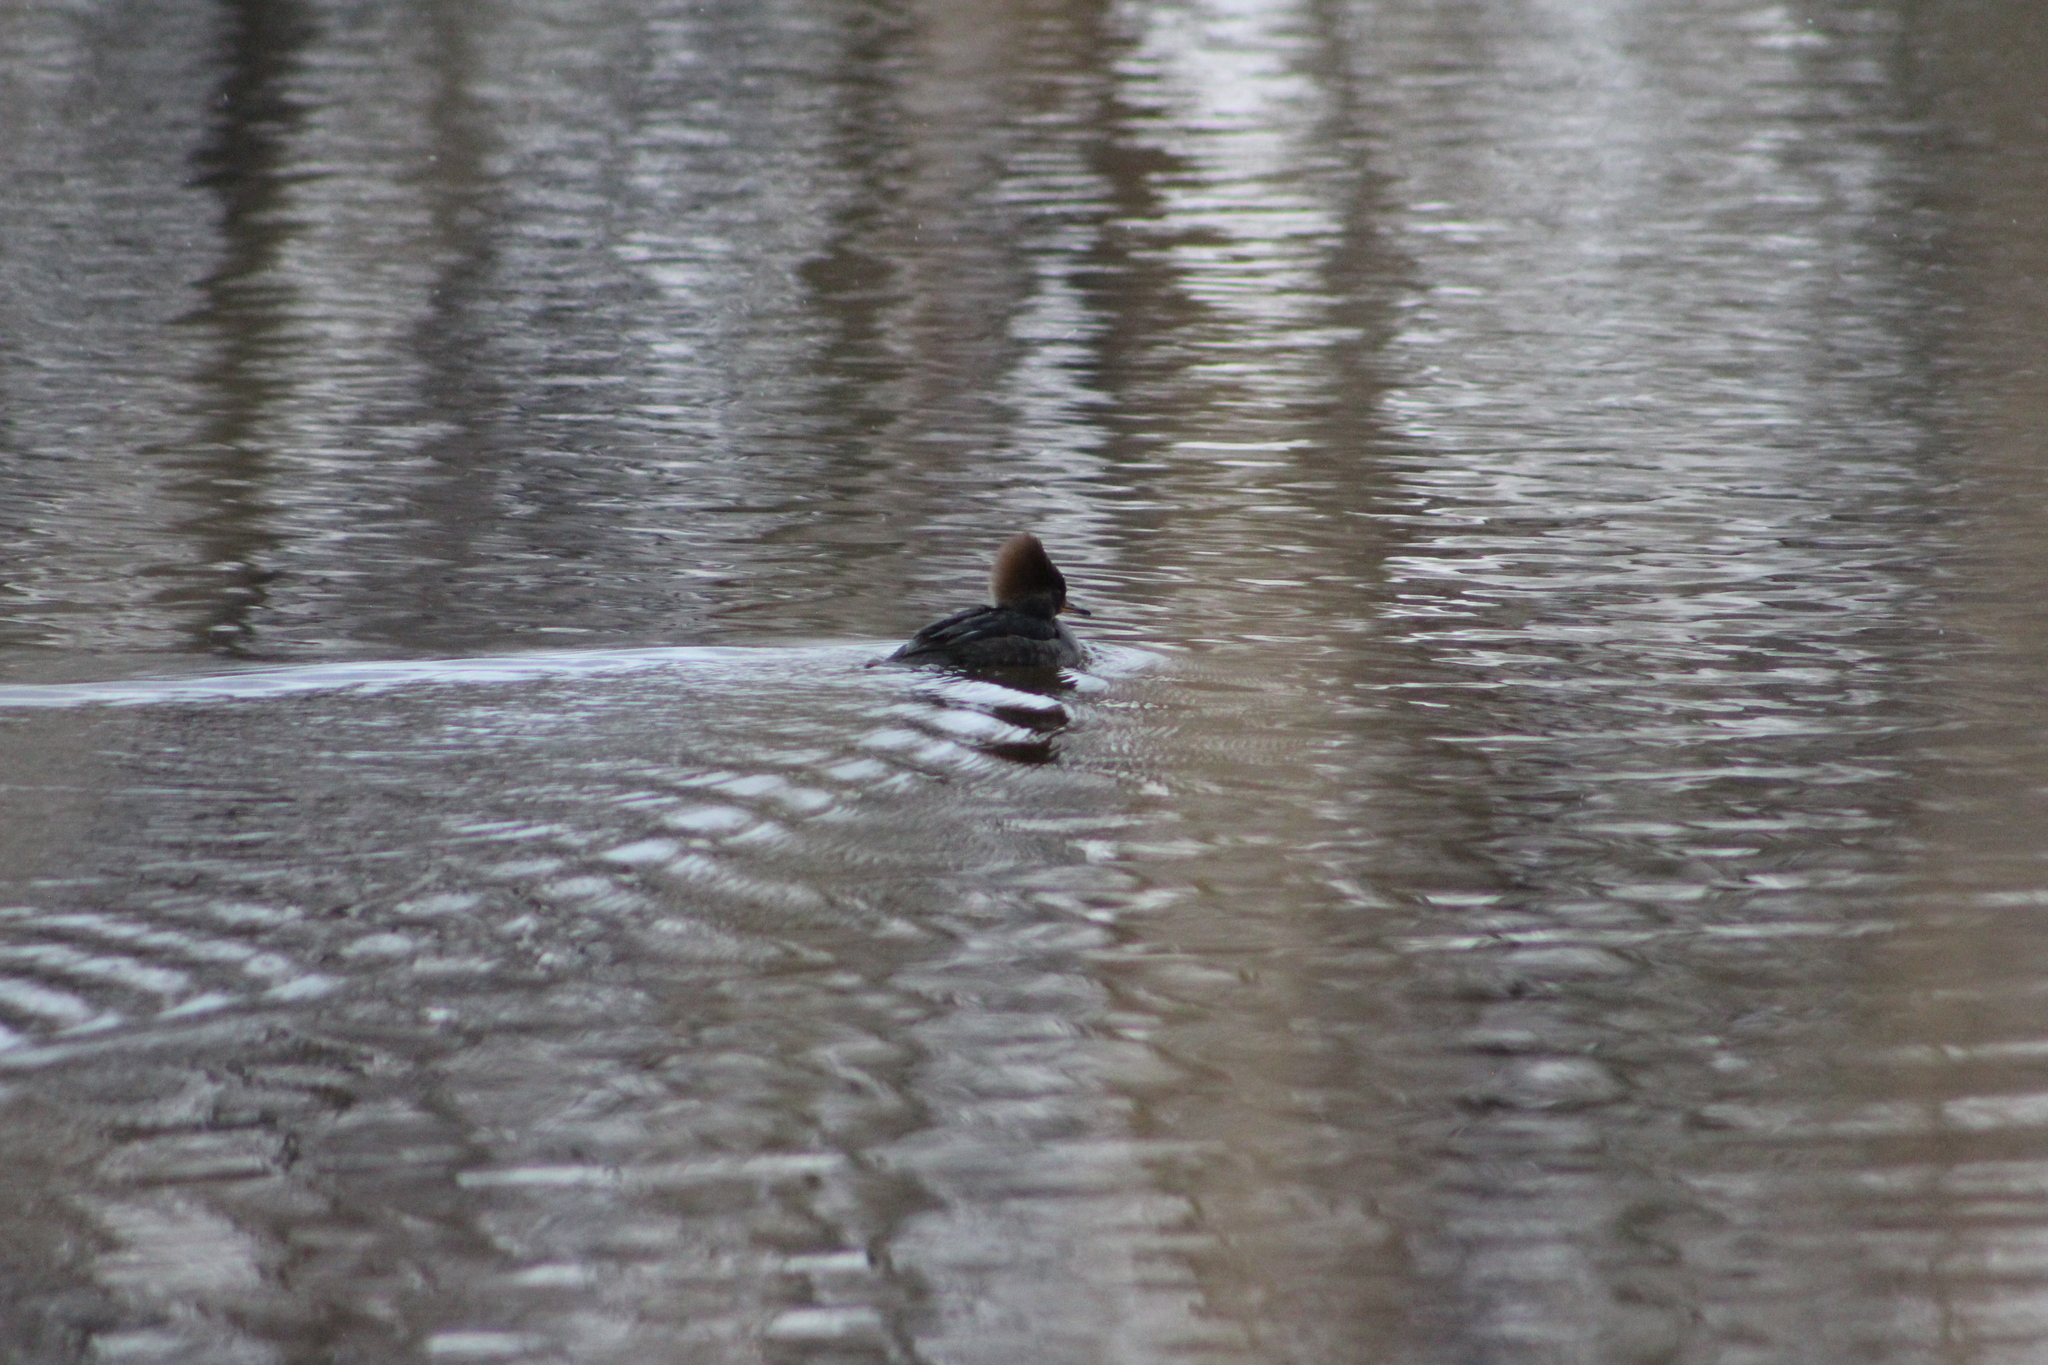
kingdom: Animalia
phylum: Chordata
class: Aves
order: Anseriformes
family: Anatidae
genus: Lophodytes
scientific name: Lophodytes cucullatus
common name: Hooded merganser
